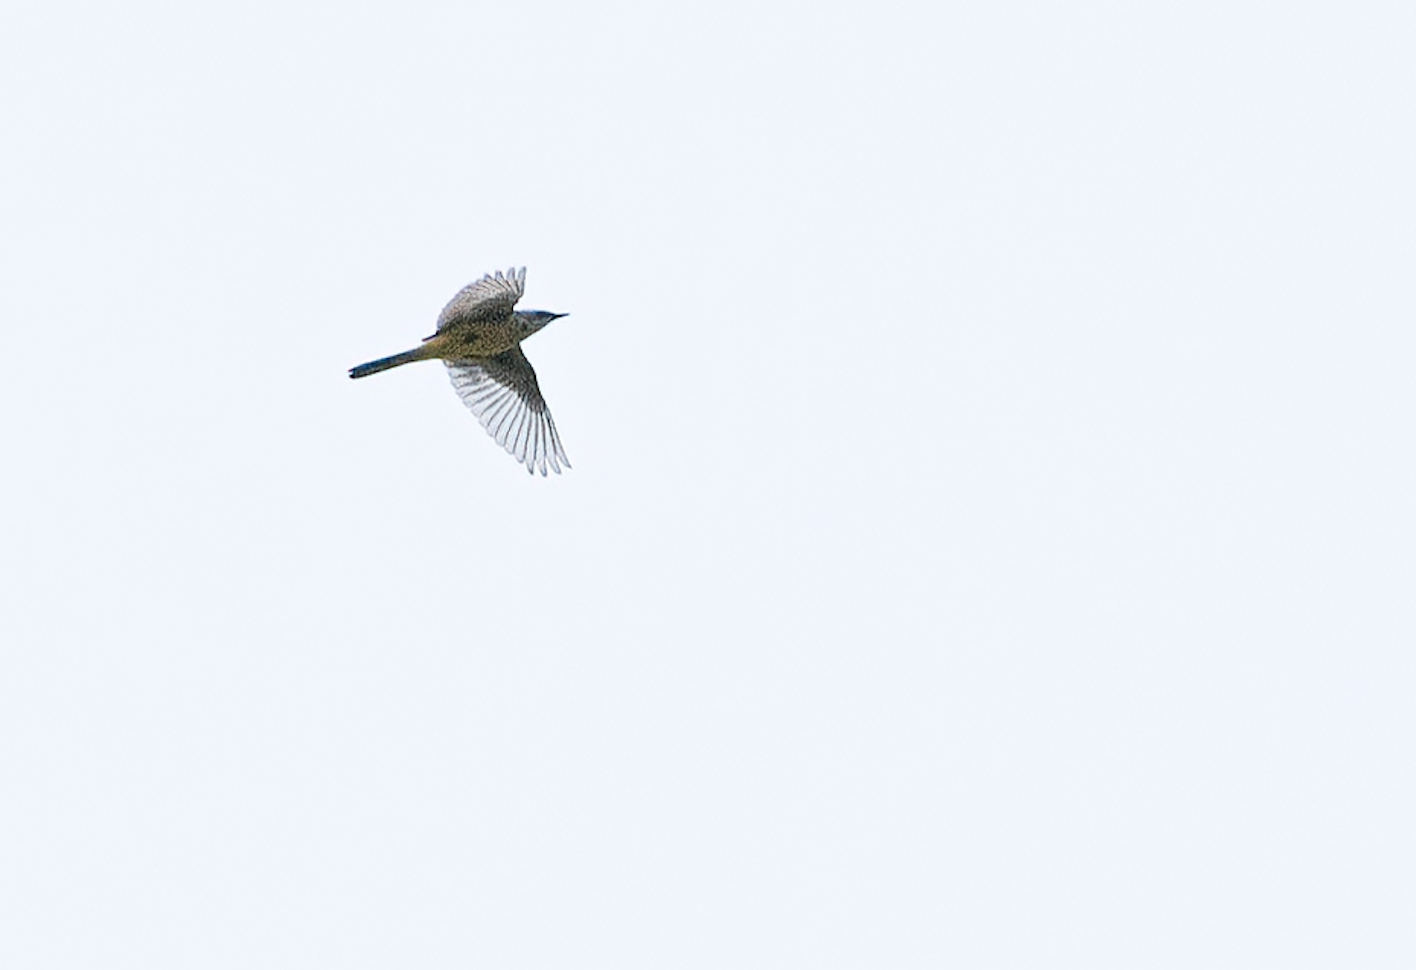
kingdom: Animalia
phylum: Chordata
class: Aves
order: Passeriformes
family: Motacillidae
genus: Motacilla
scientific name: Motacilla flava
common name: Western yellow wagtail
